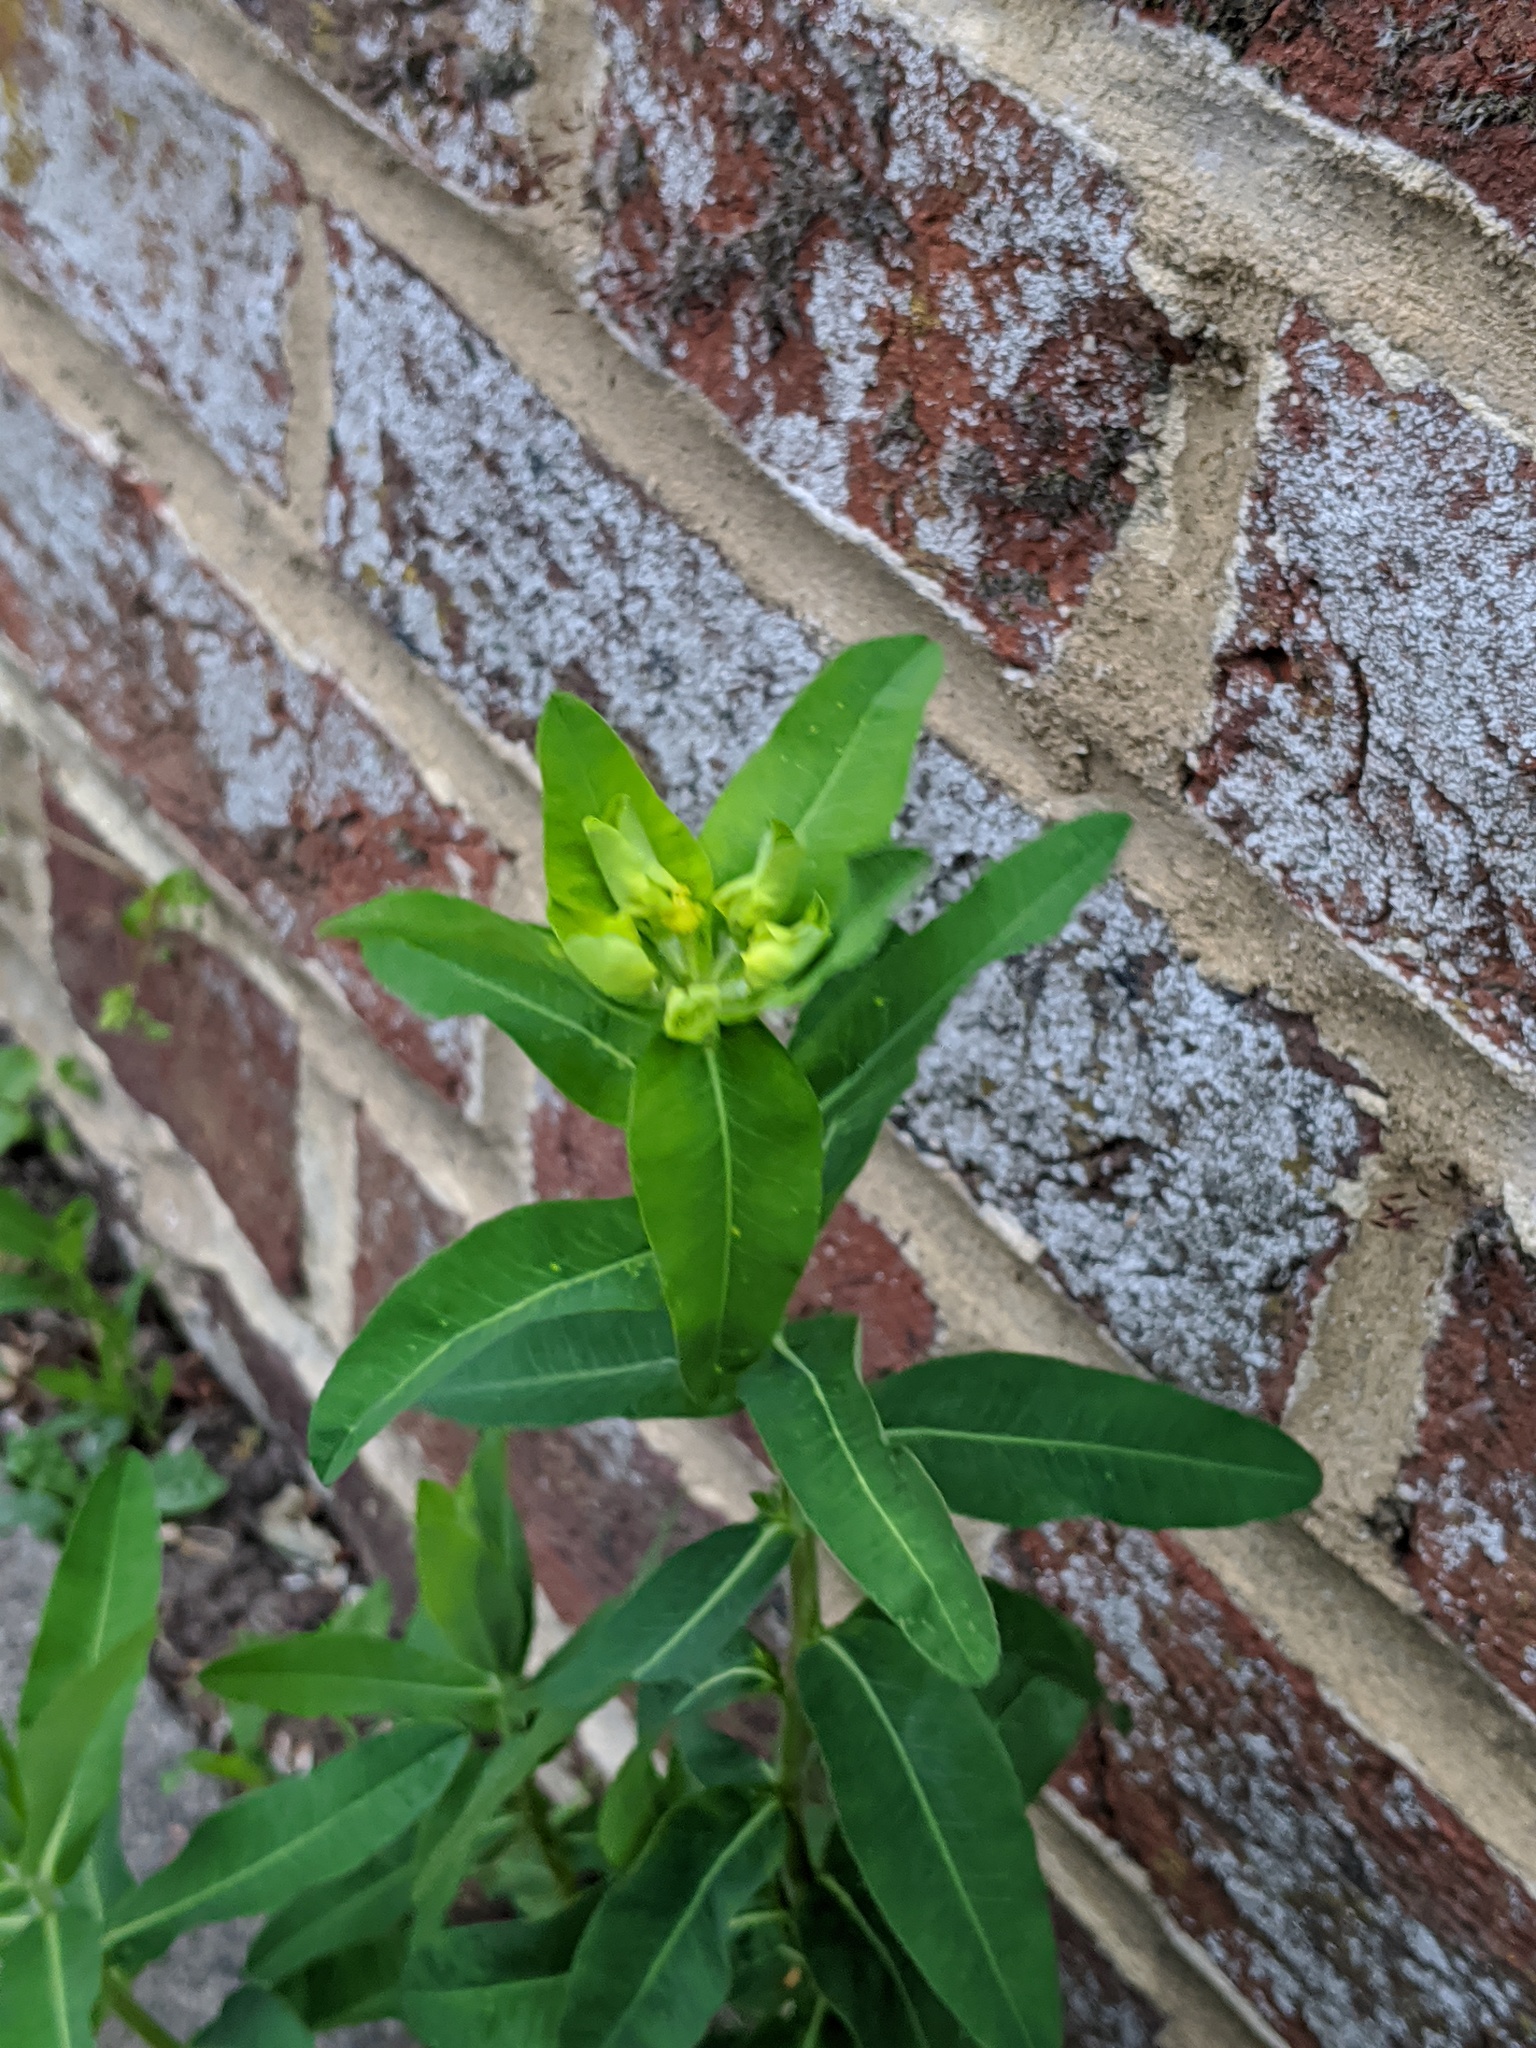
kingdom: Plantae
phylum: Tracheophyta
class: Magnoliopsida
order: Malpighiales
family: Euphorbiaceae
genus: Euphorbia
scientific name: Euphorbia oblongata
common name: Balkan spurge
